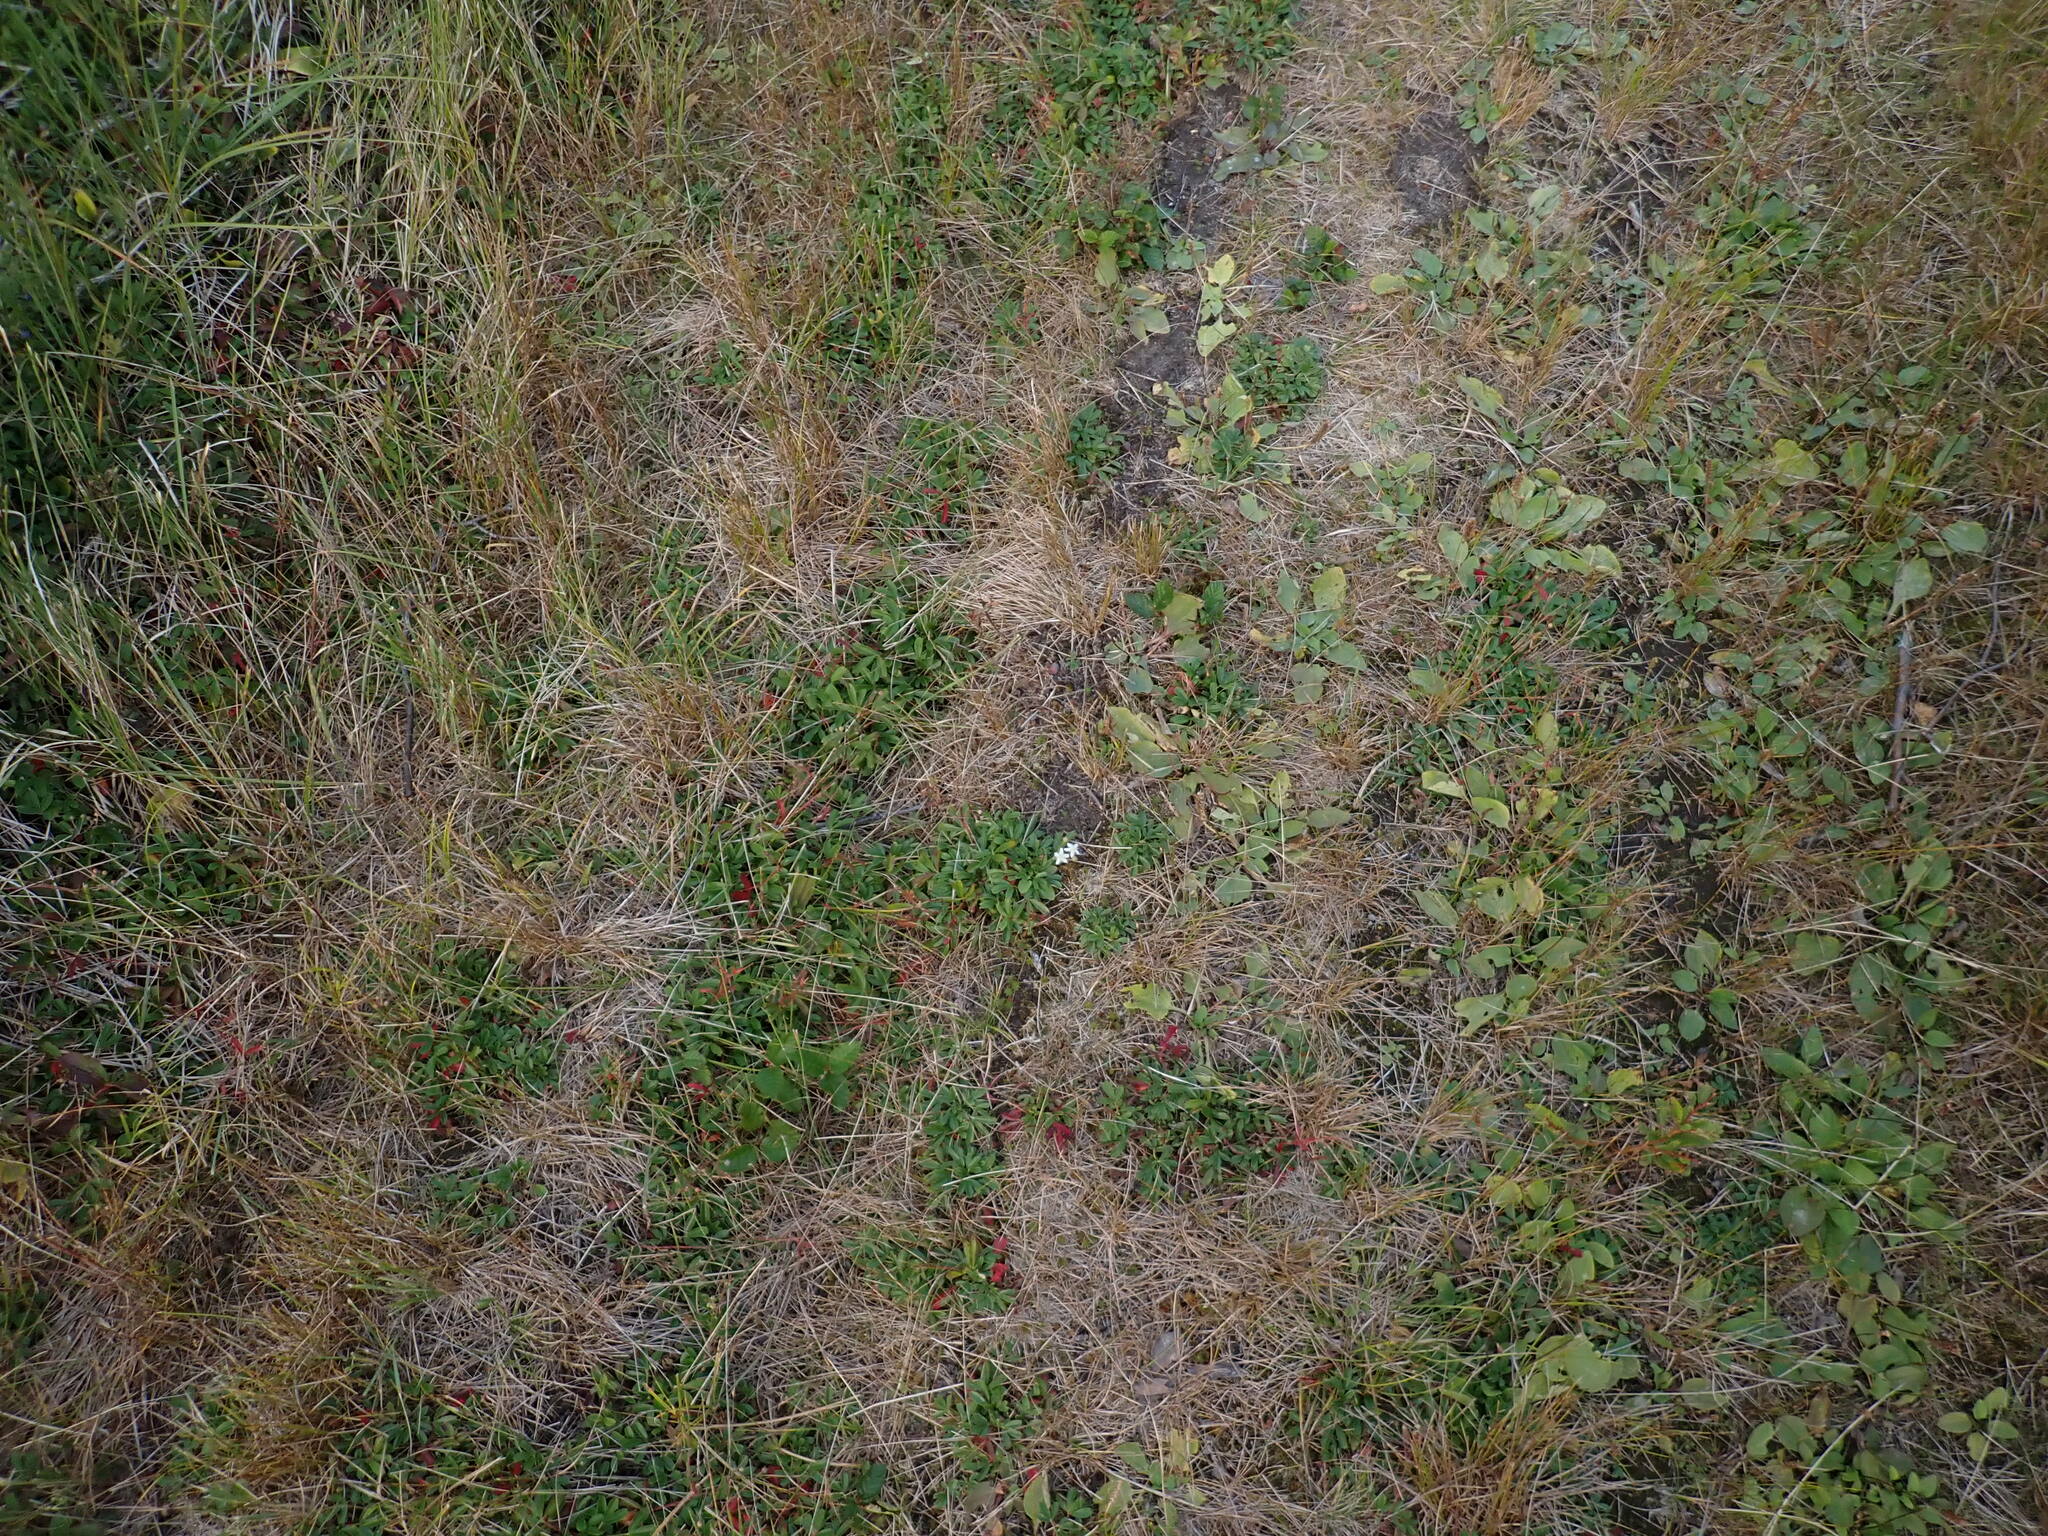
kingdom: Plantae
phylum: Tracheophyta
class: Magnoliopsida
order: Rosales
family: Rosaceae
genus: Sibbaldia
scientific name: Sibbaldia tridentata
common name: Three-toothed cinquefoil
